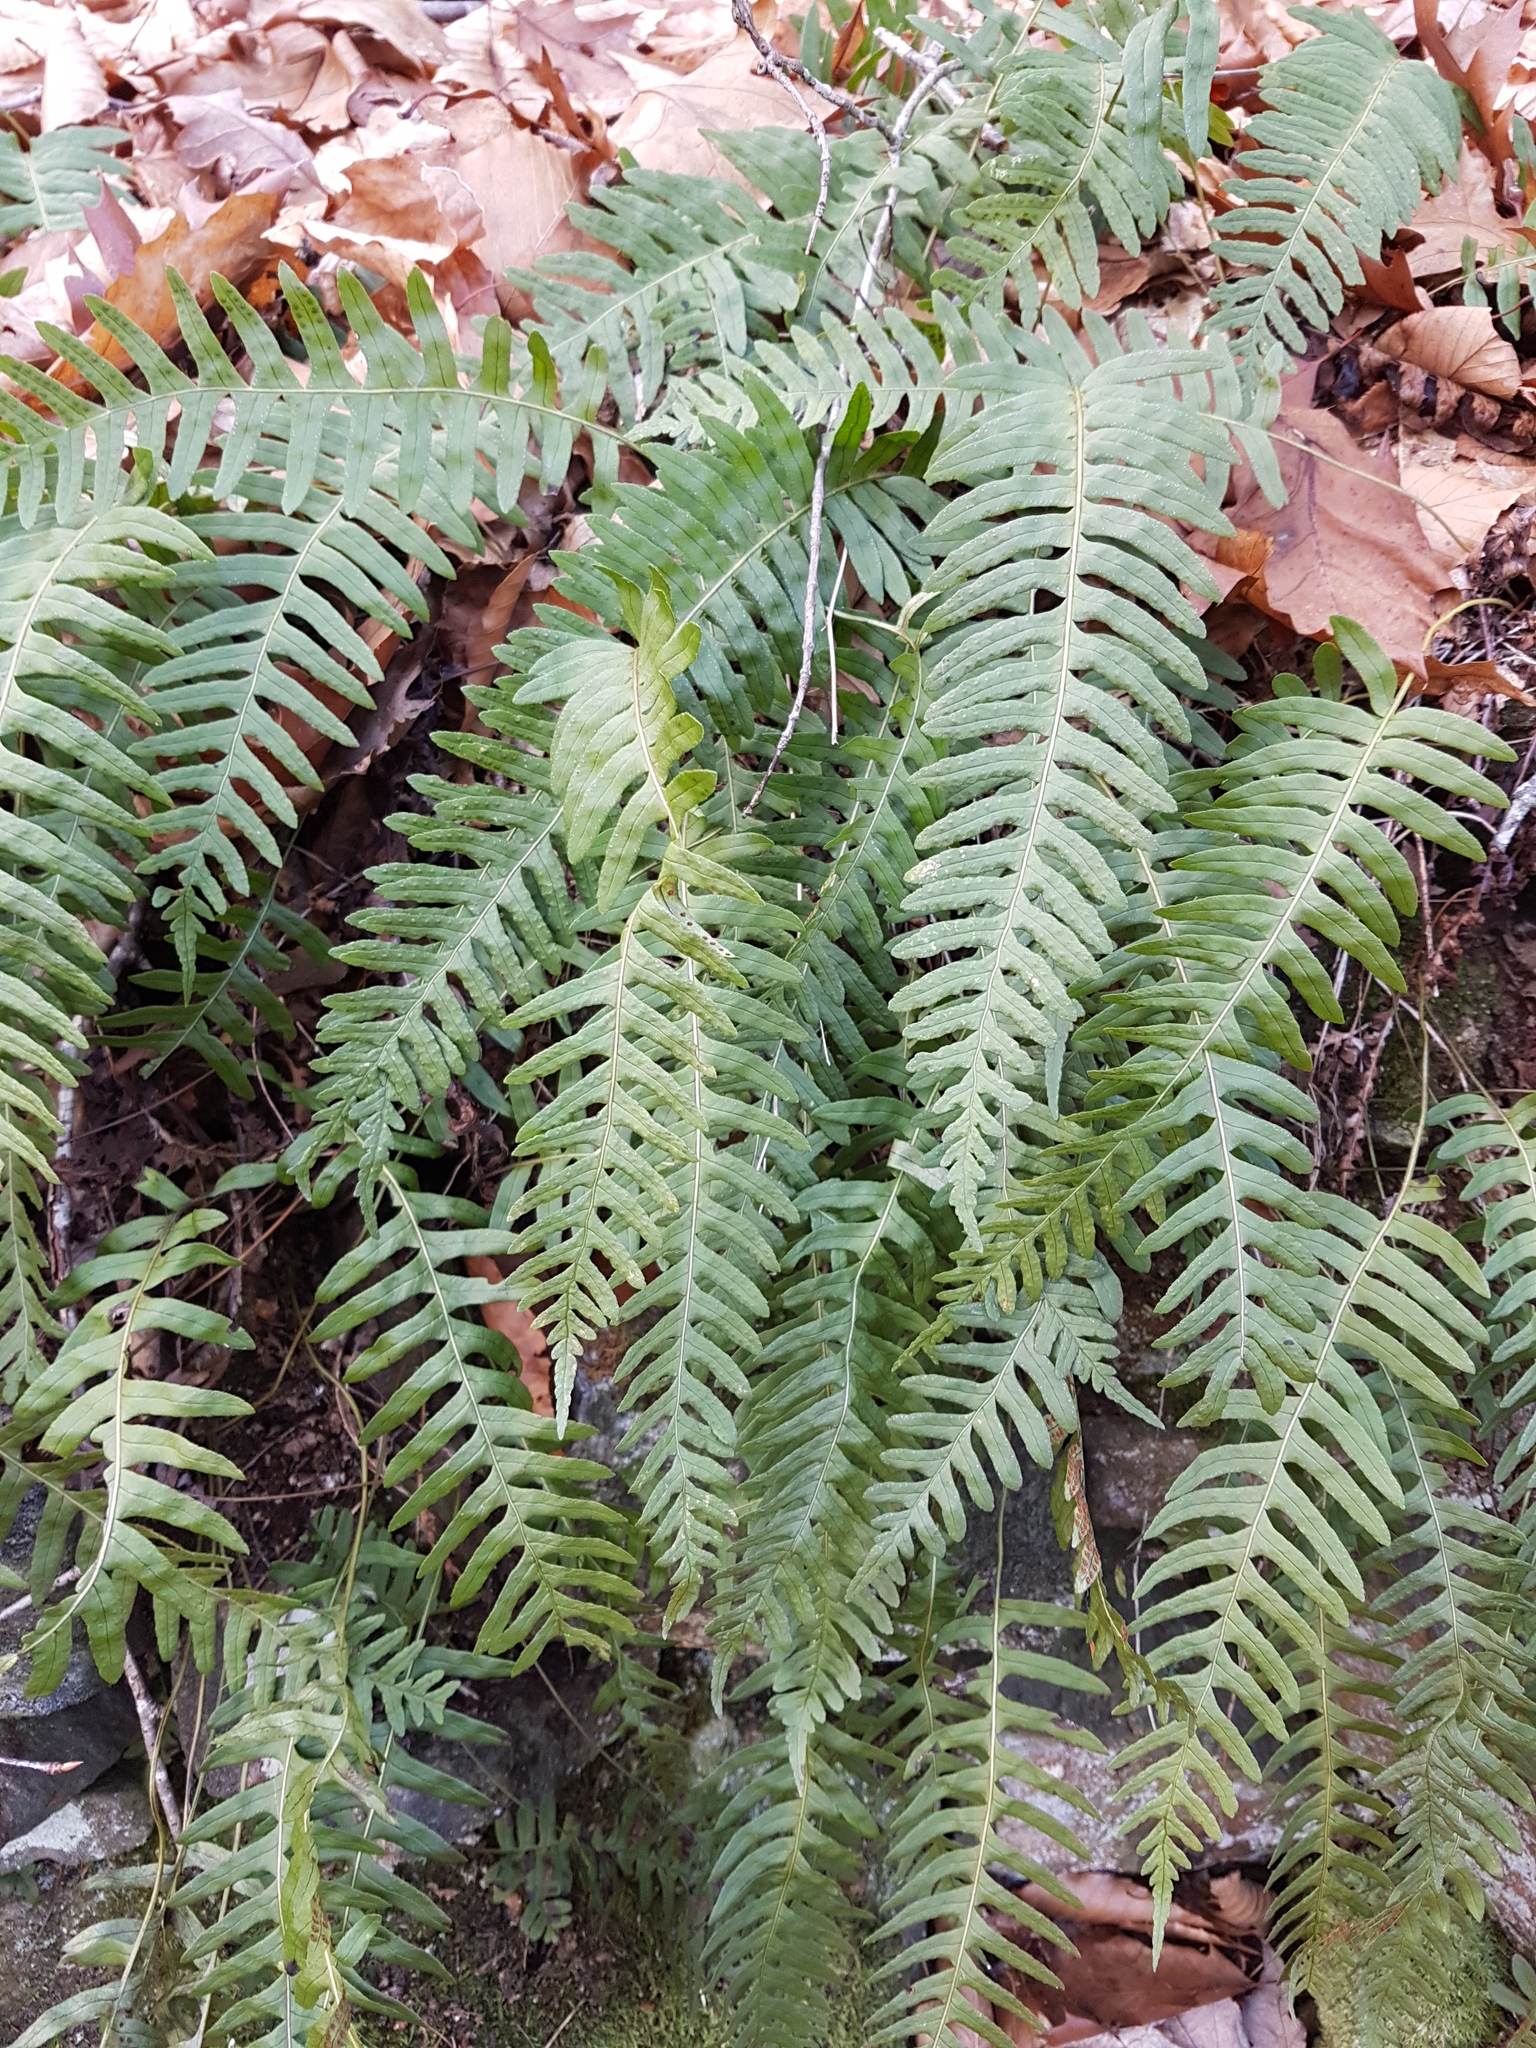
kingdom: Plantae
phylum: Tracheophyta
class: Polypodiopsida
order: Polypodiales
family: Polypodiaceae
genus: Polypodium
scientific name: Polypodium virginianum
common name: American wall fern
